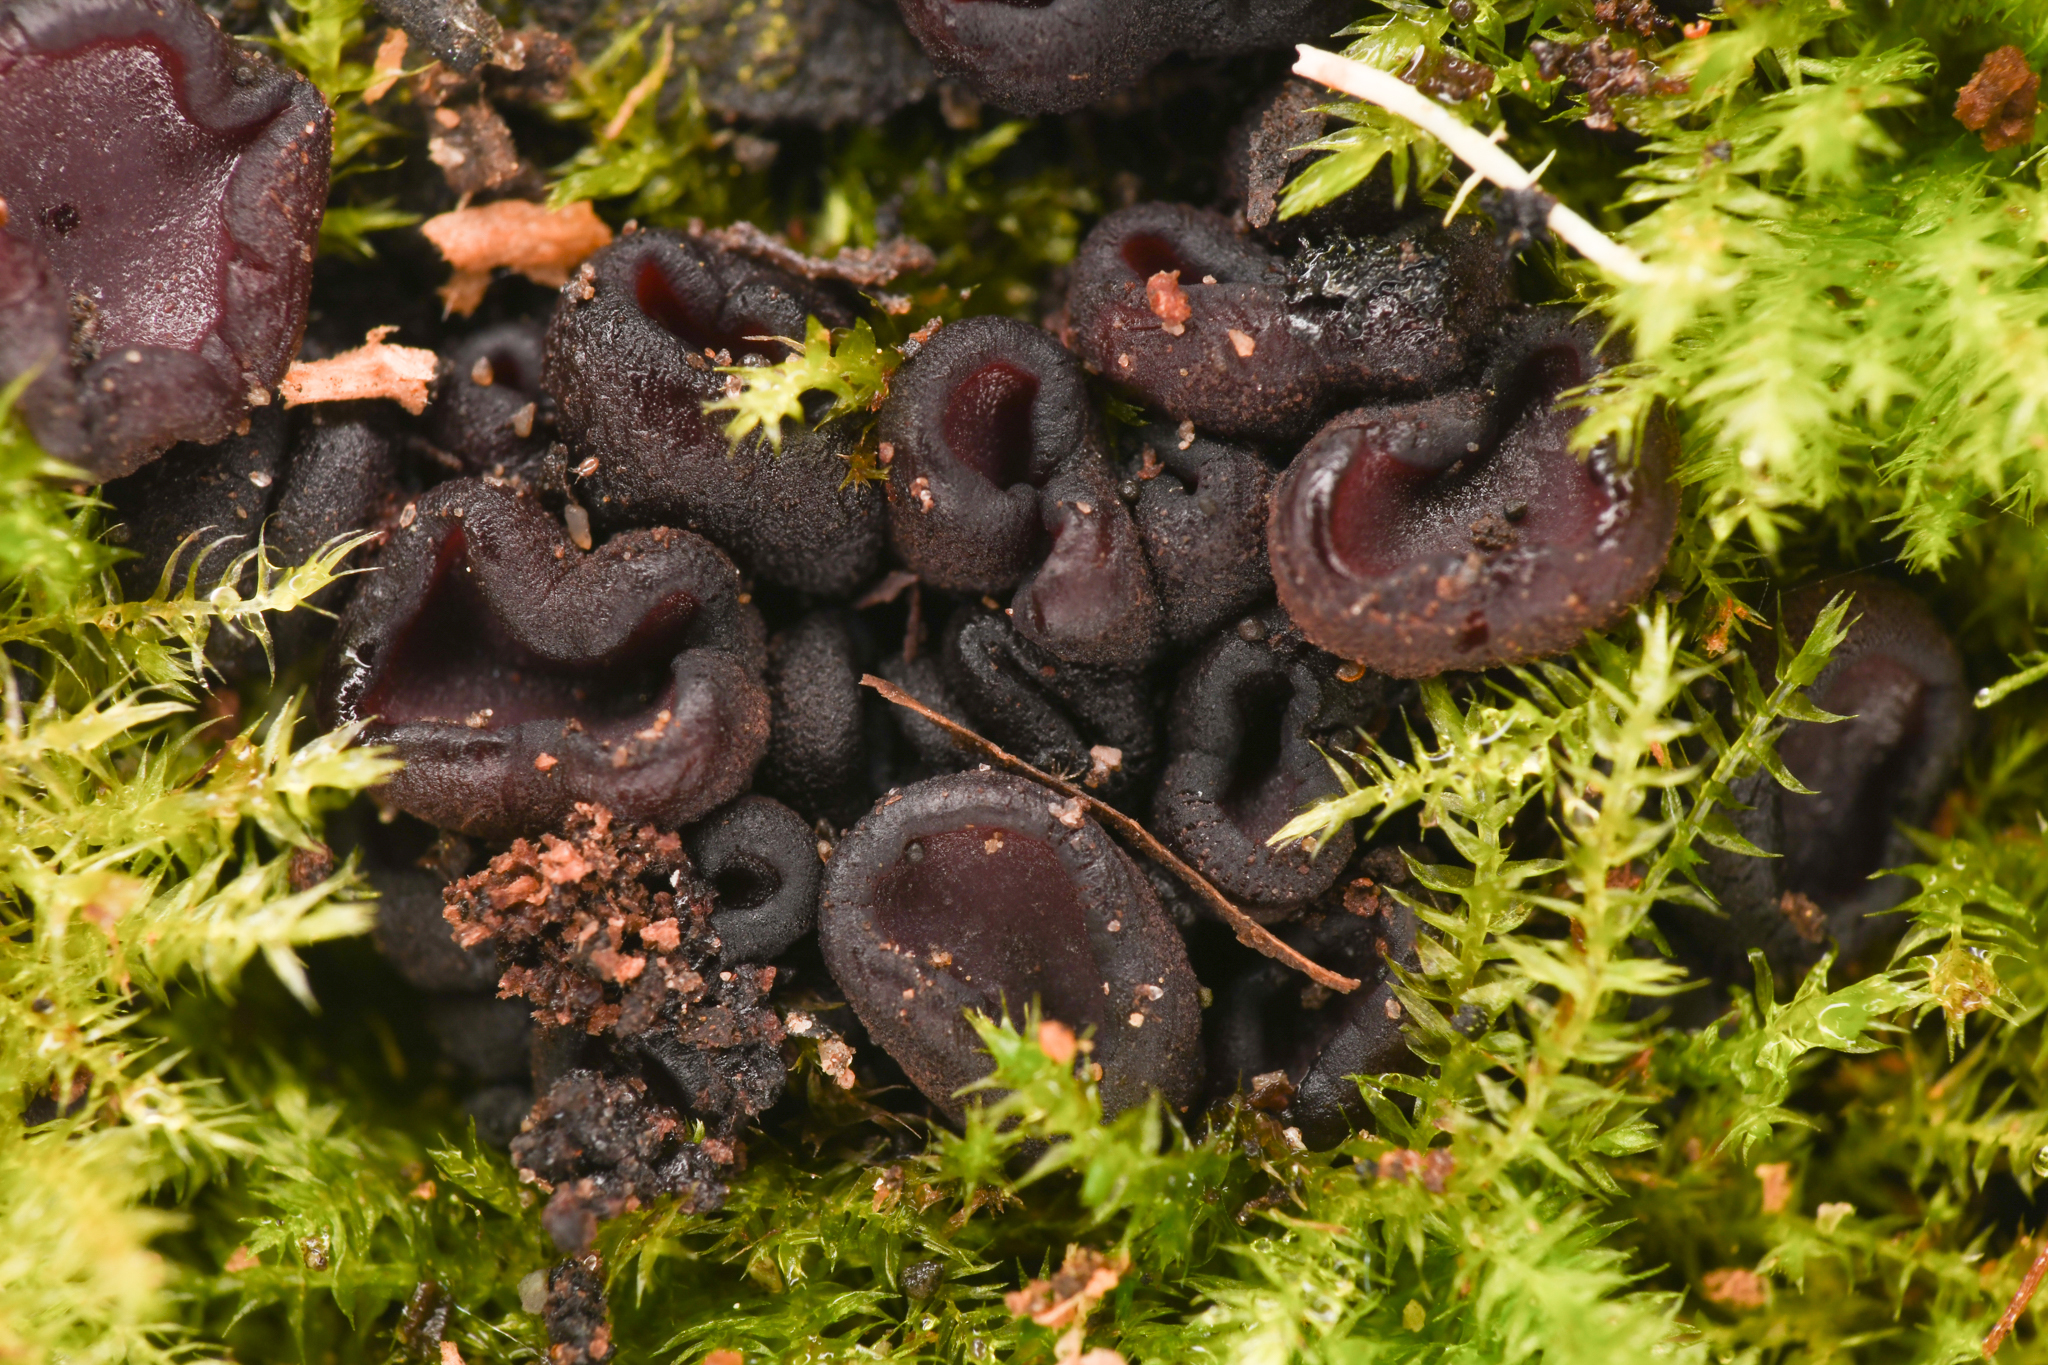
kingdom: Fungi
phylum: Ascomycota
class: Leotiomycetes
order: Helotiales
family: Gelatinodiscaceae
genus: Ascocoryne
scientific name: Ascocoryne sarcoides
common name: Purple jellydisc
